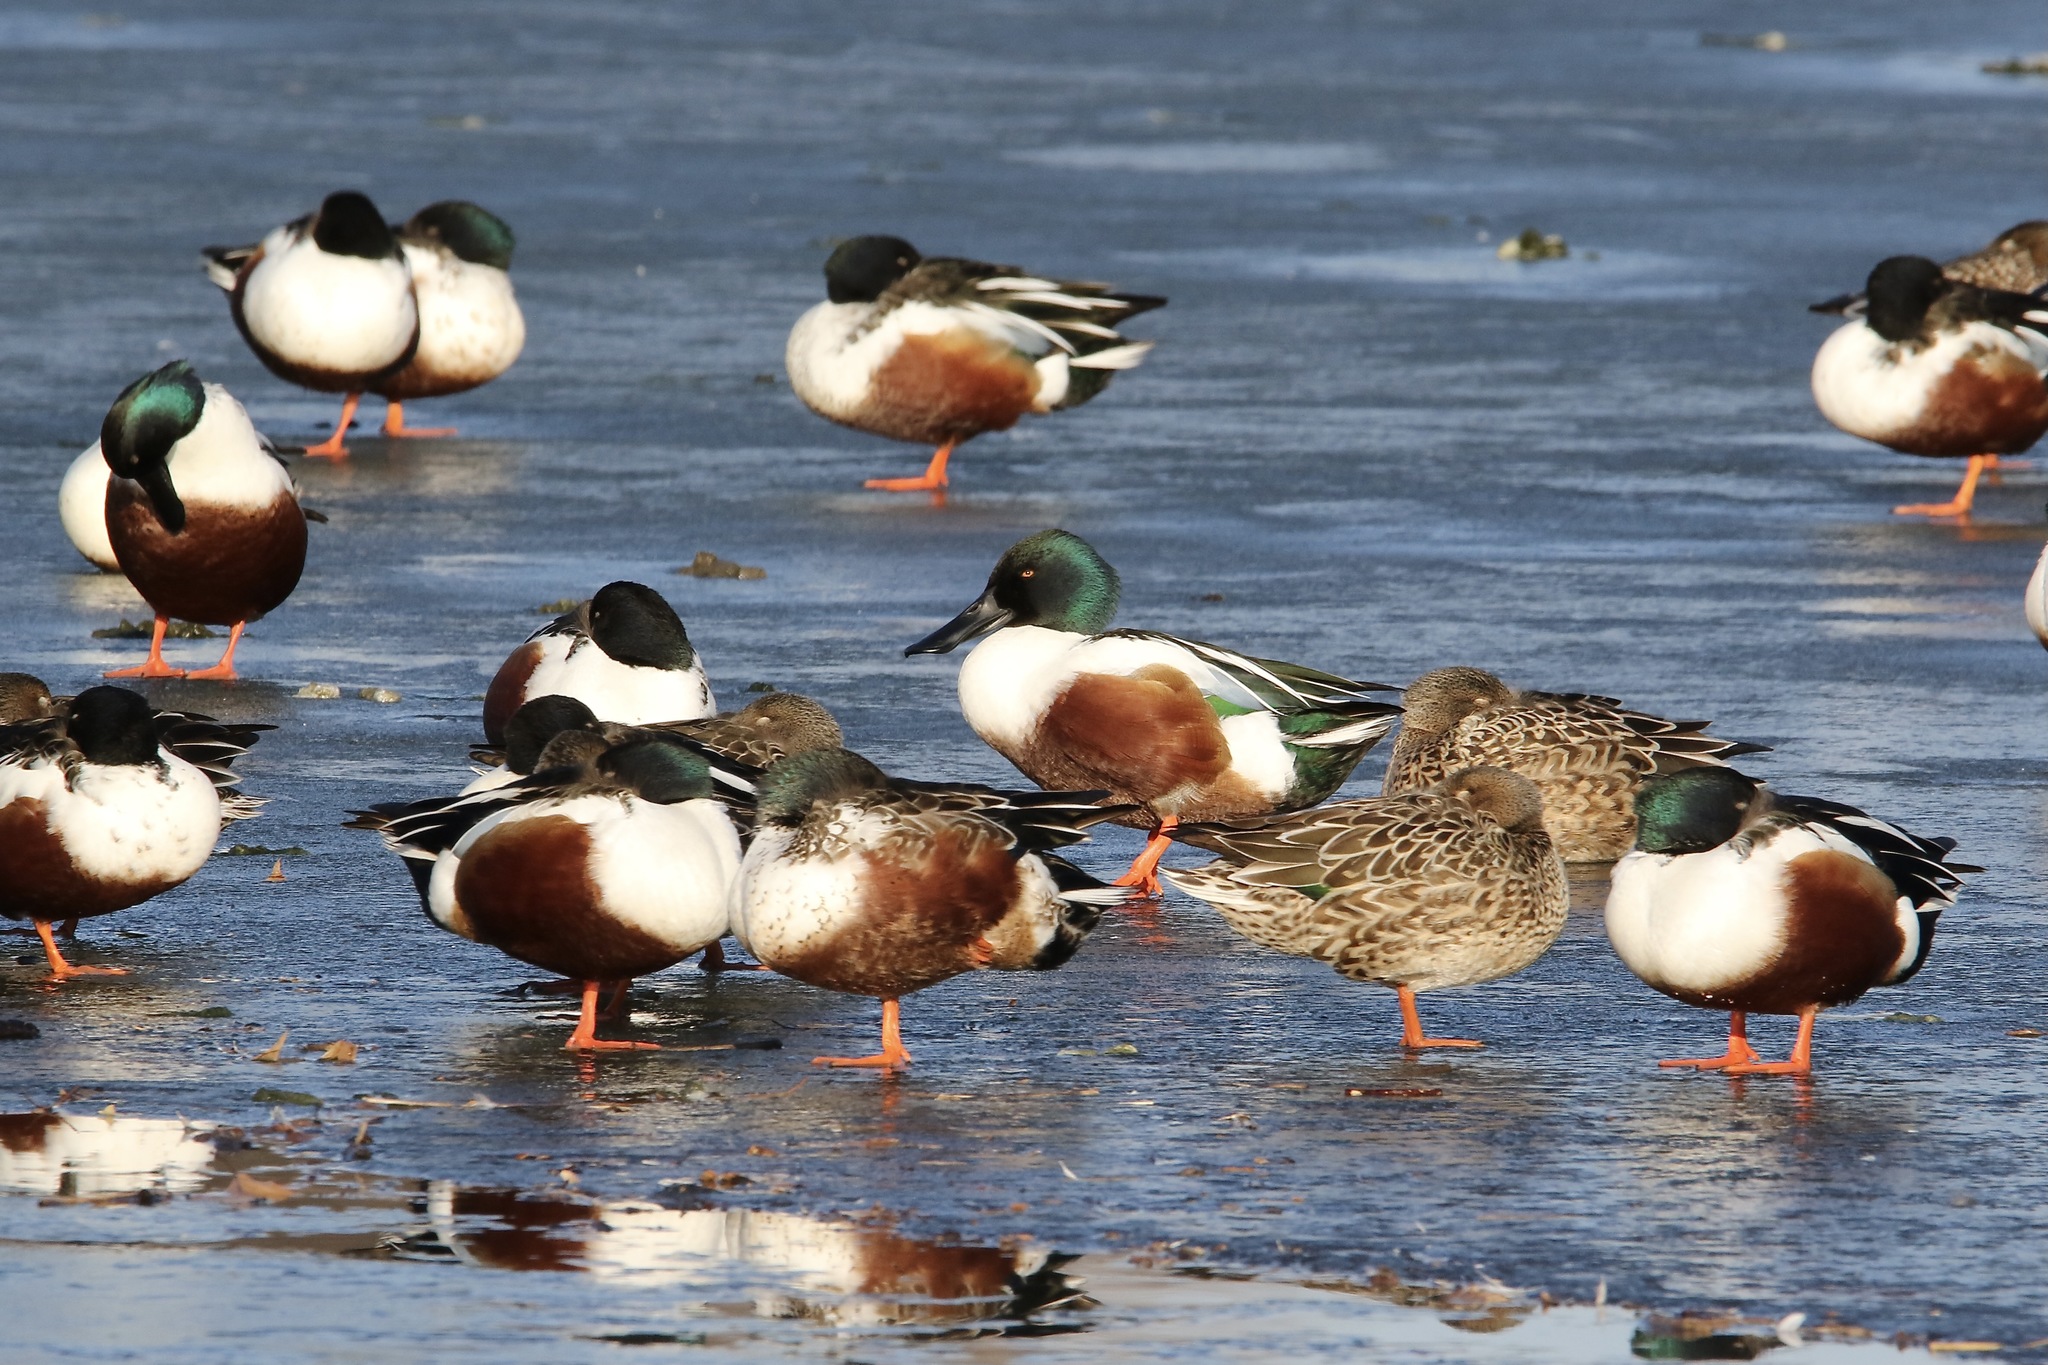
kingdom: Animalia
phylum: Chordata
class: Aves
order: Anseriformes
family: Anatidae
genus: Spatula
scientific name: Spatula clypeata
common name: Northern shoveler
